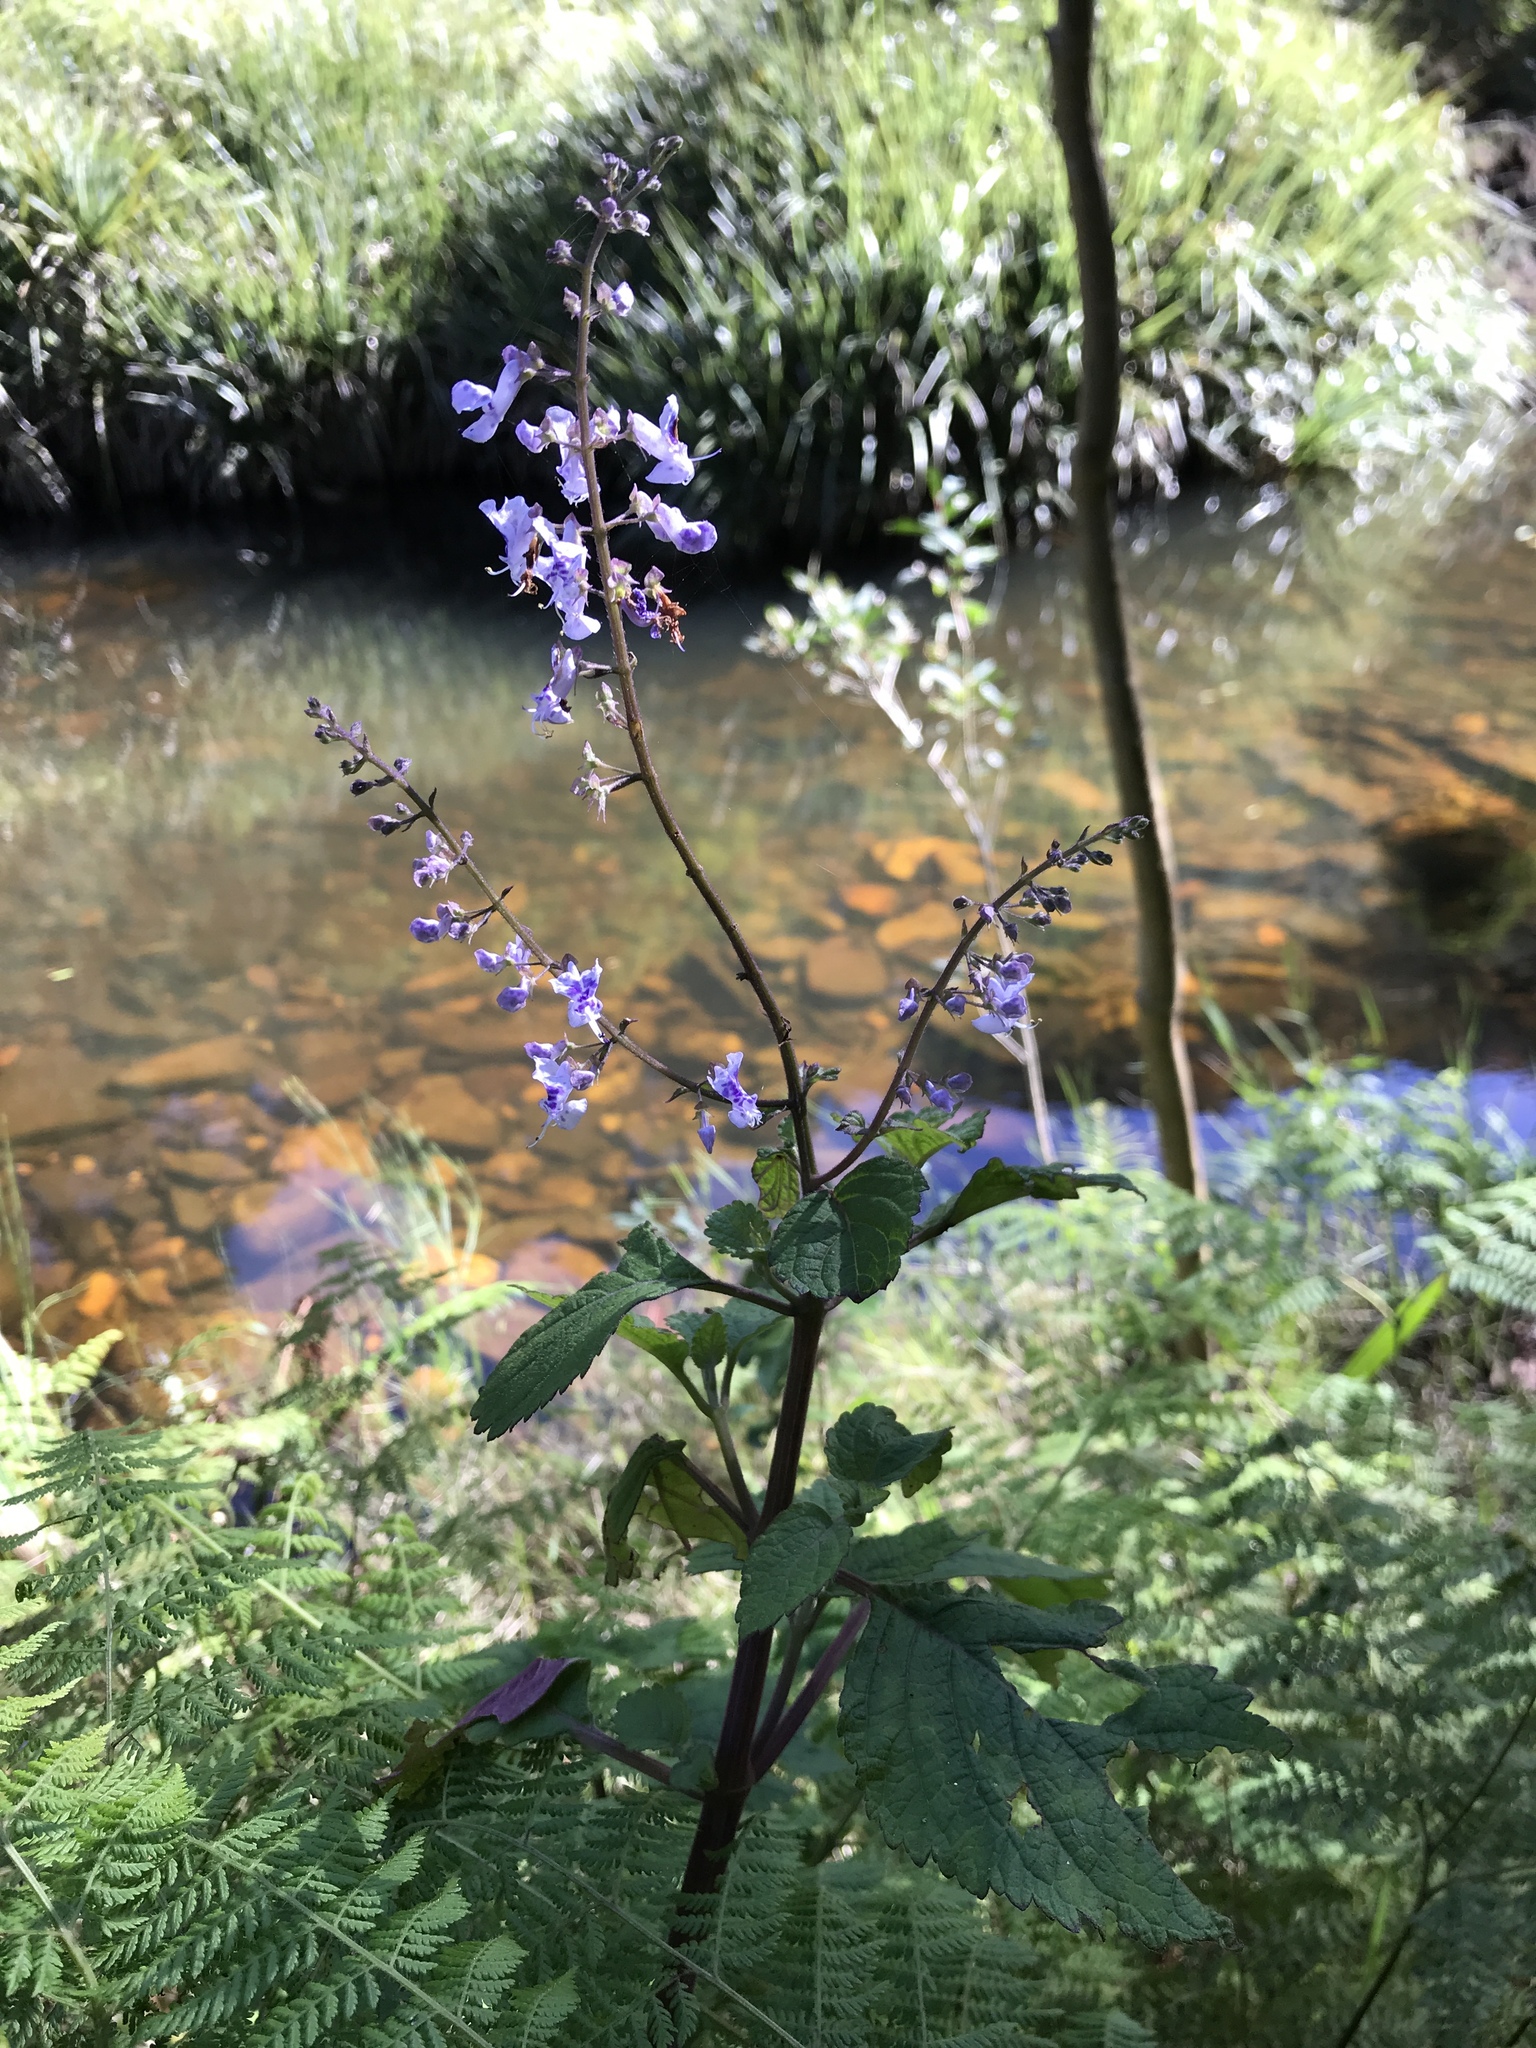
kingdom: Plantae
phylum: Tracheophyta
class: Magnoliopsida
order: Lamiales
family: Lamiaceae
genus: Plectranthus
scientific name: Plectranthus fruticosus
